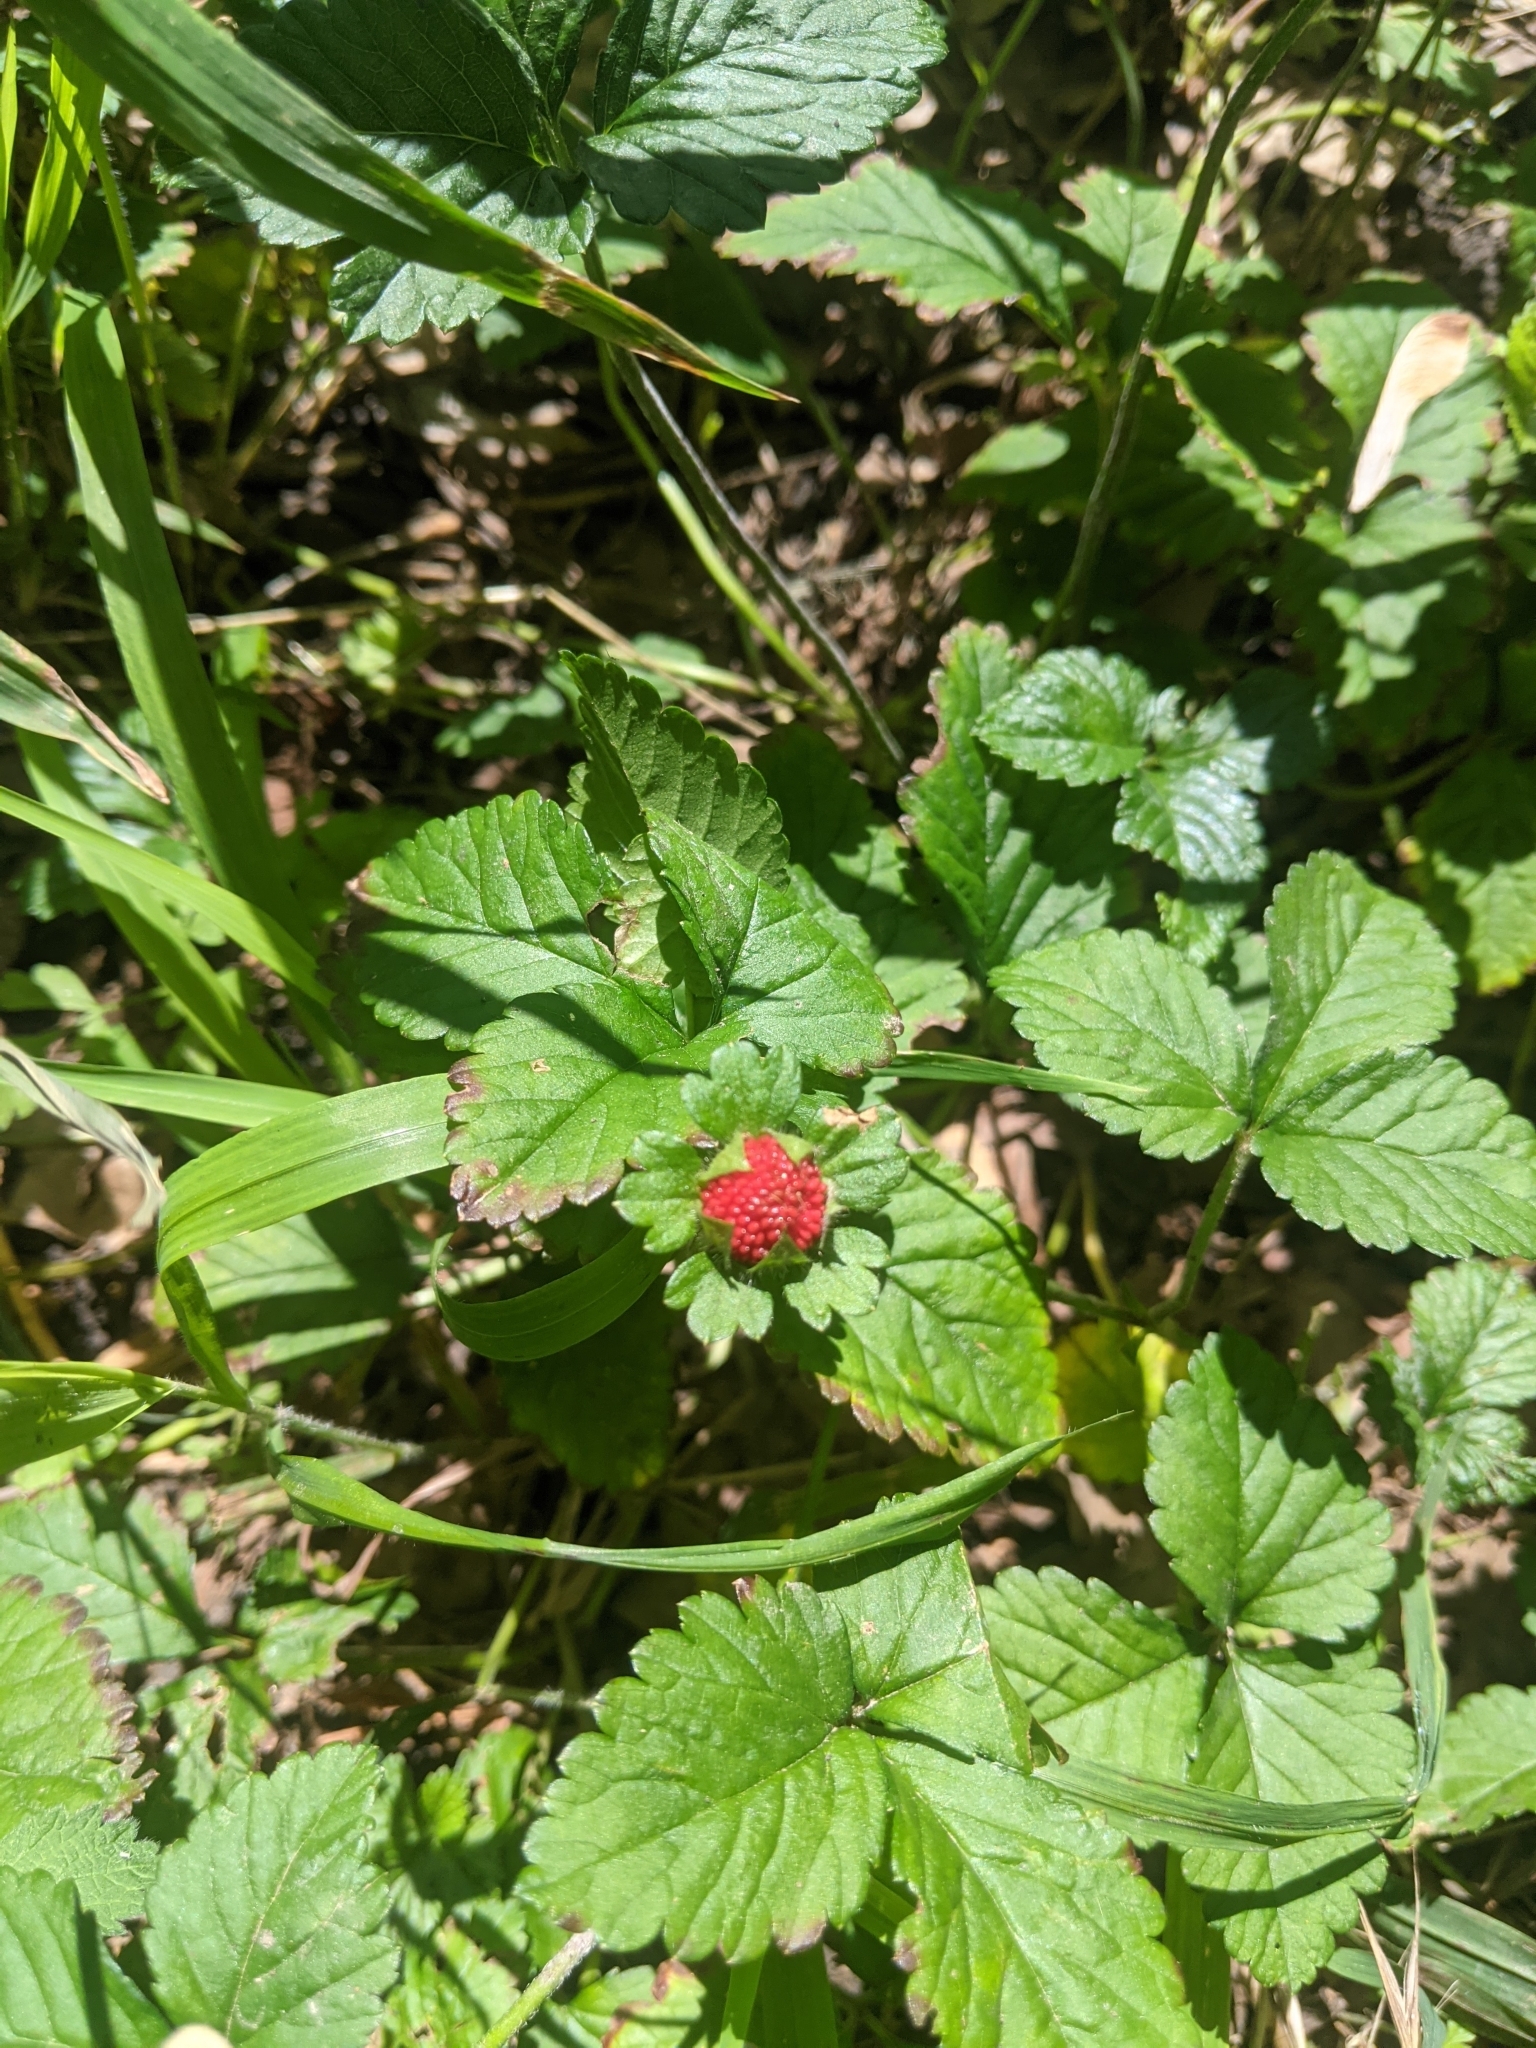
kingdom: Plantae
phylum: Tracheophyta
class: Magnoliopsida
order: Rosales
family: Rosaceae
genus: Potentilla
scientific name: Potentilla indica
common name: Yellow-flowered strawberry
